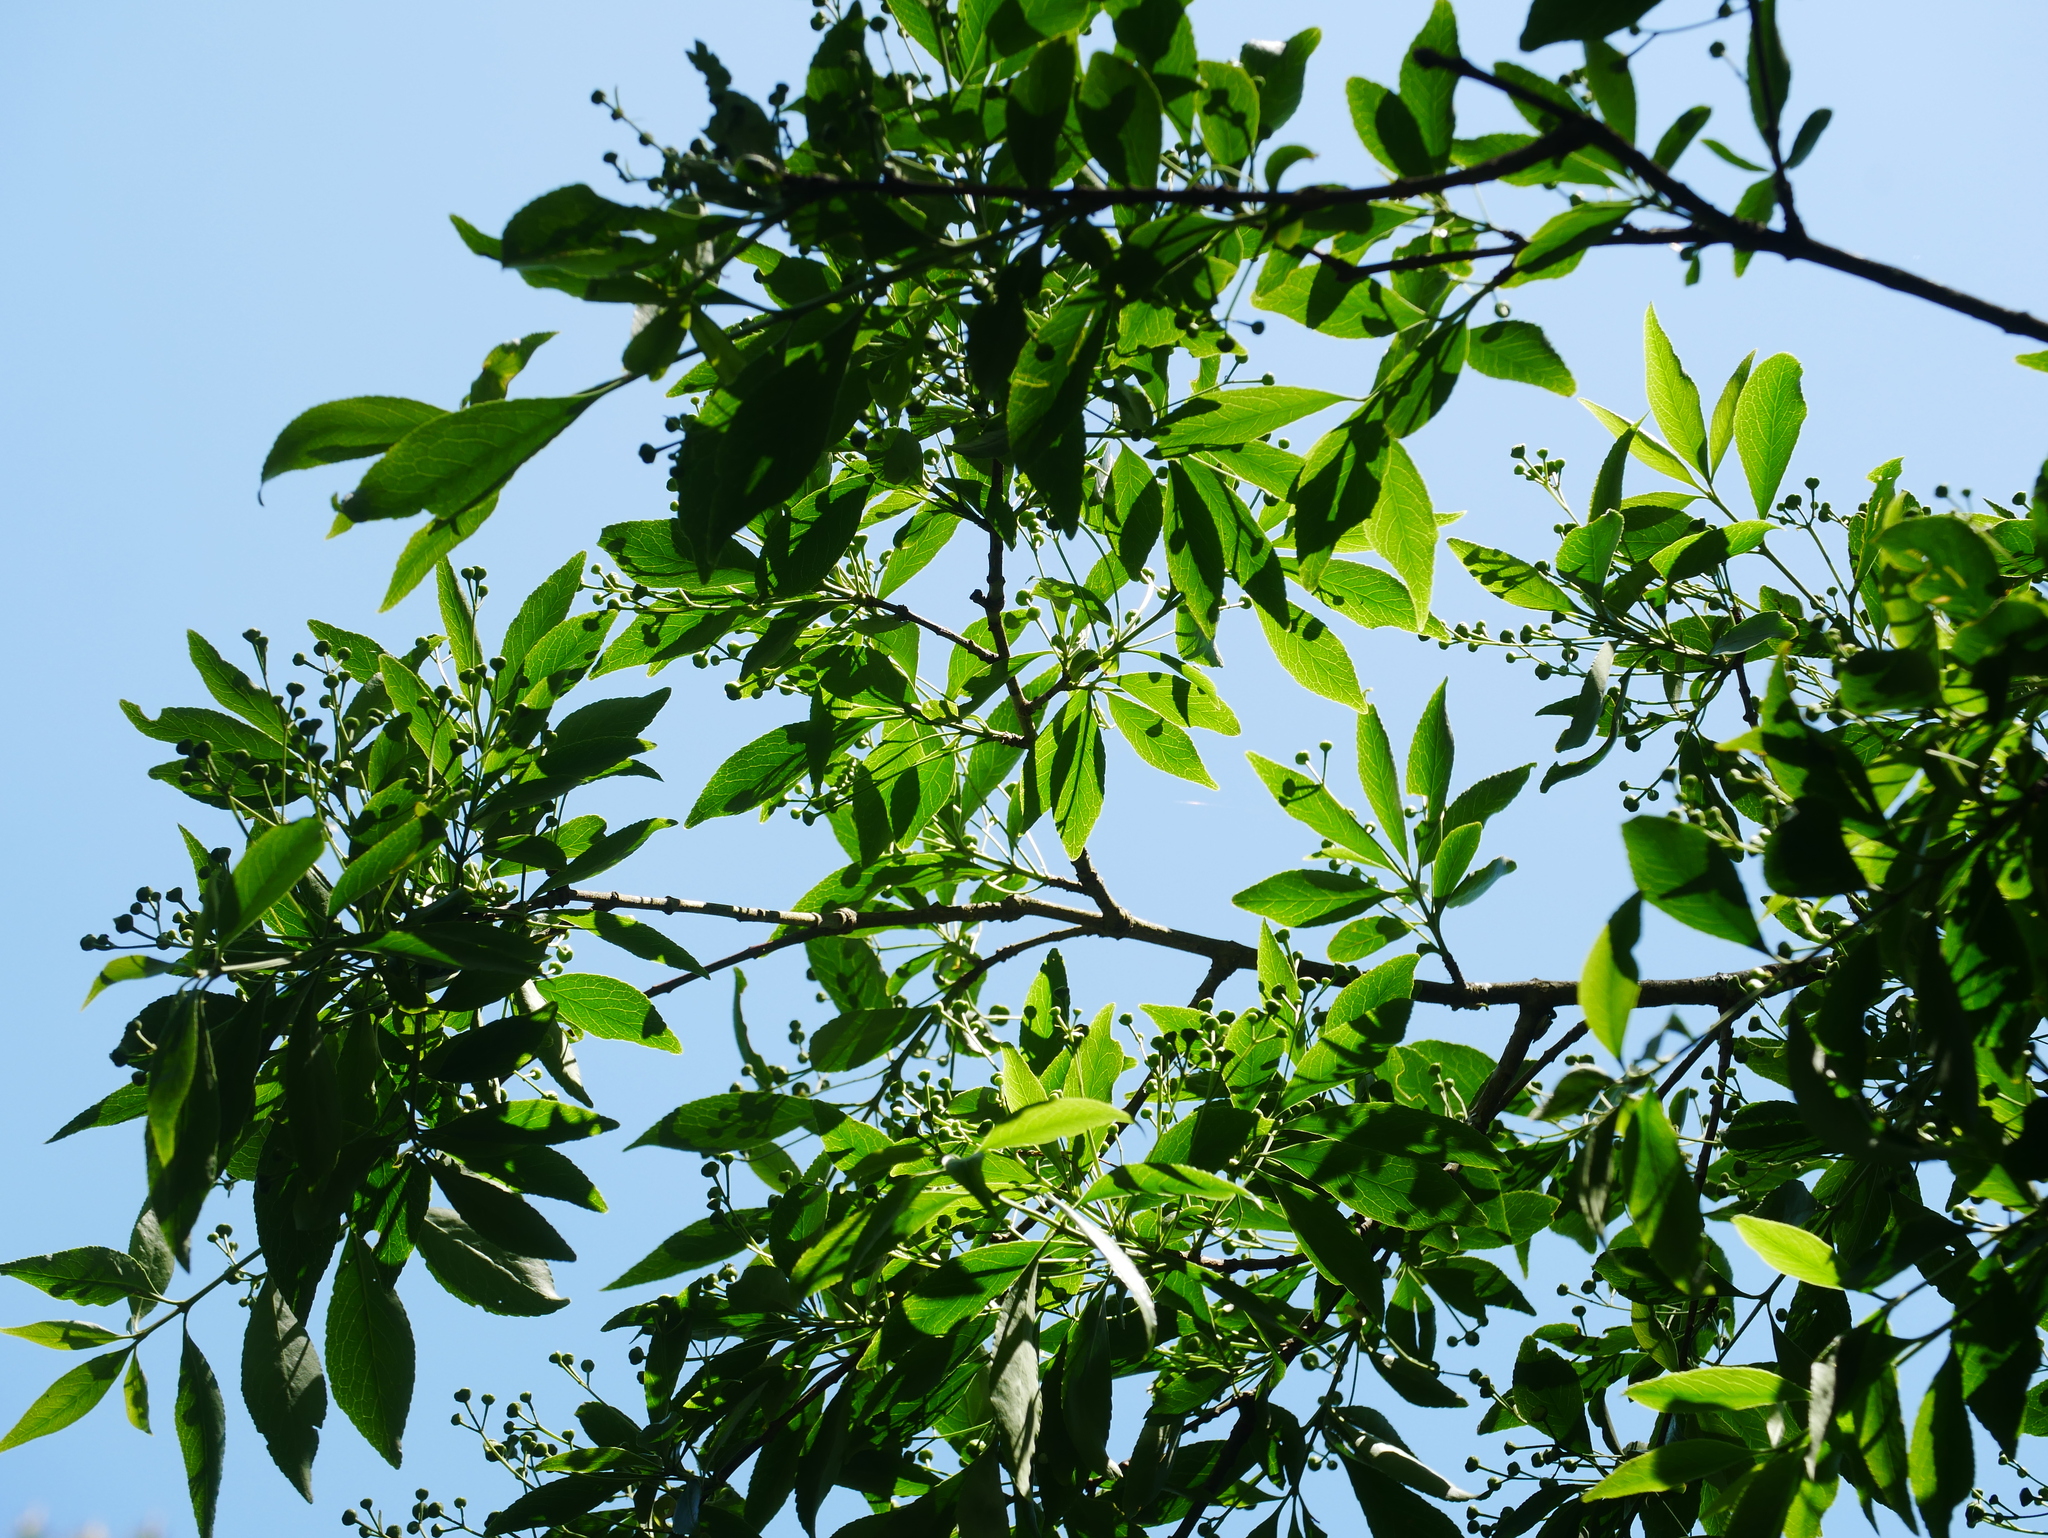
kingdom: Plantae
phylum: Tracheophyta
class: Magnoliopsida
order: Celastrales
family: Celastraceae
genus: Euonymus
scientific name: Euonymus carnosus
